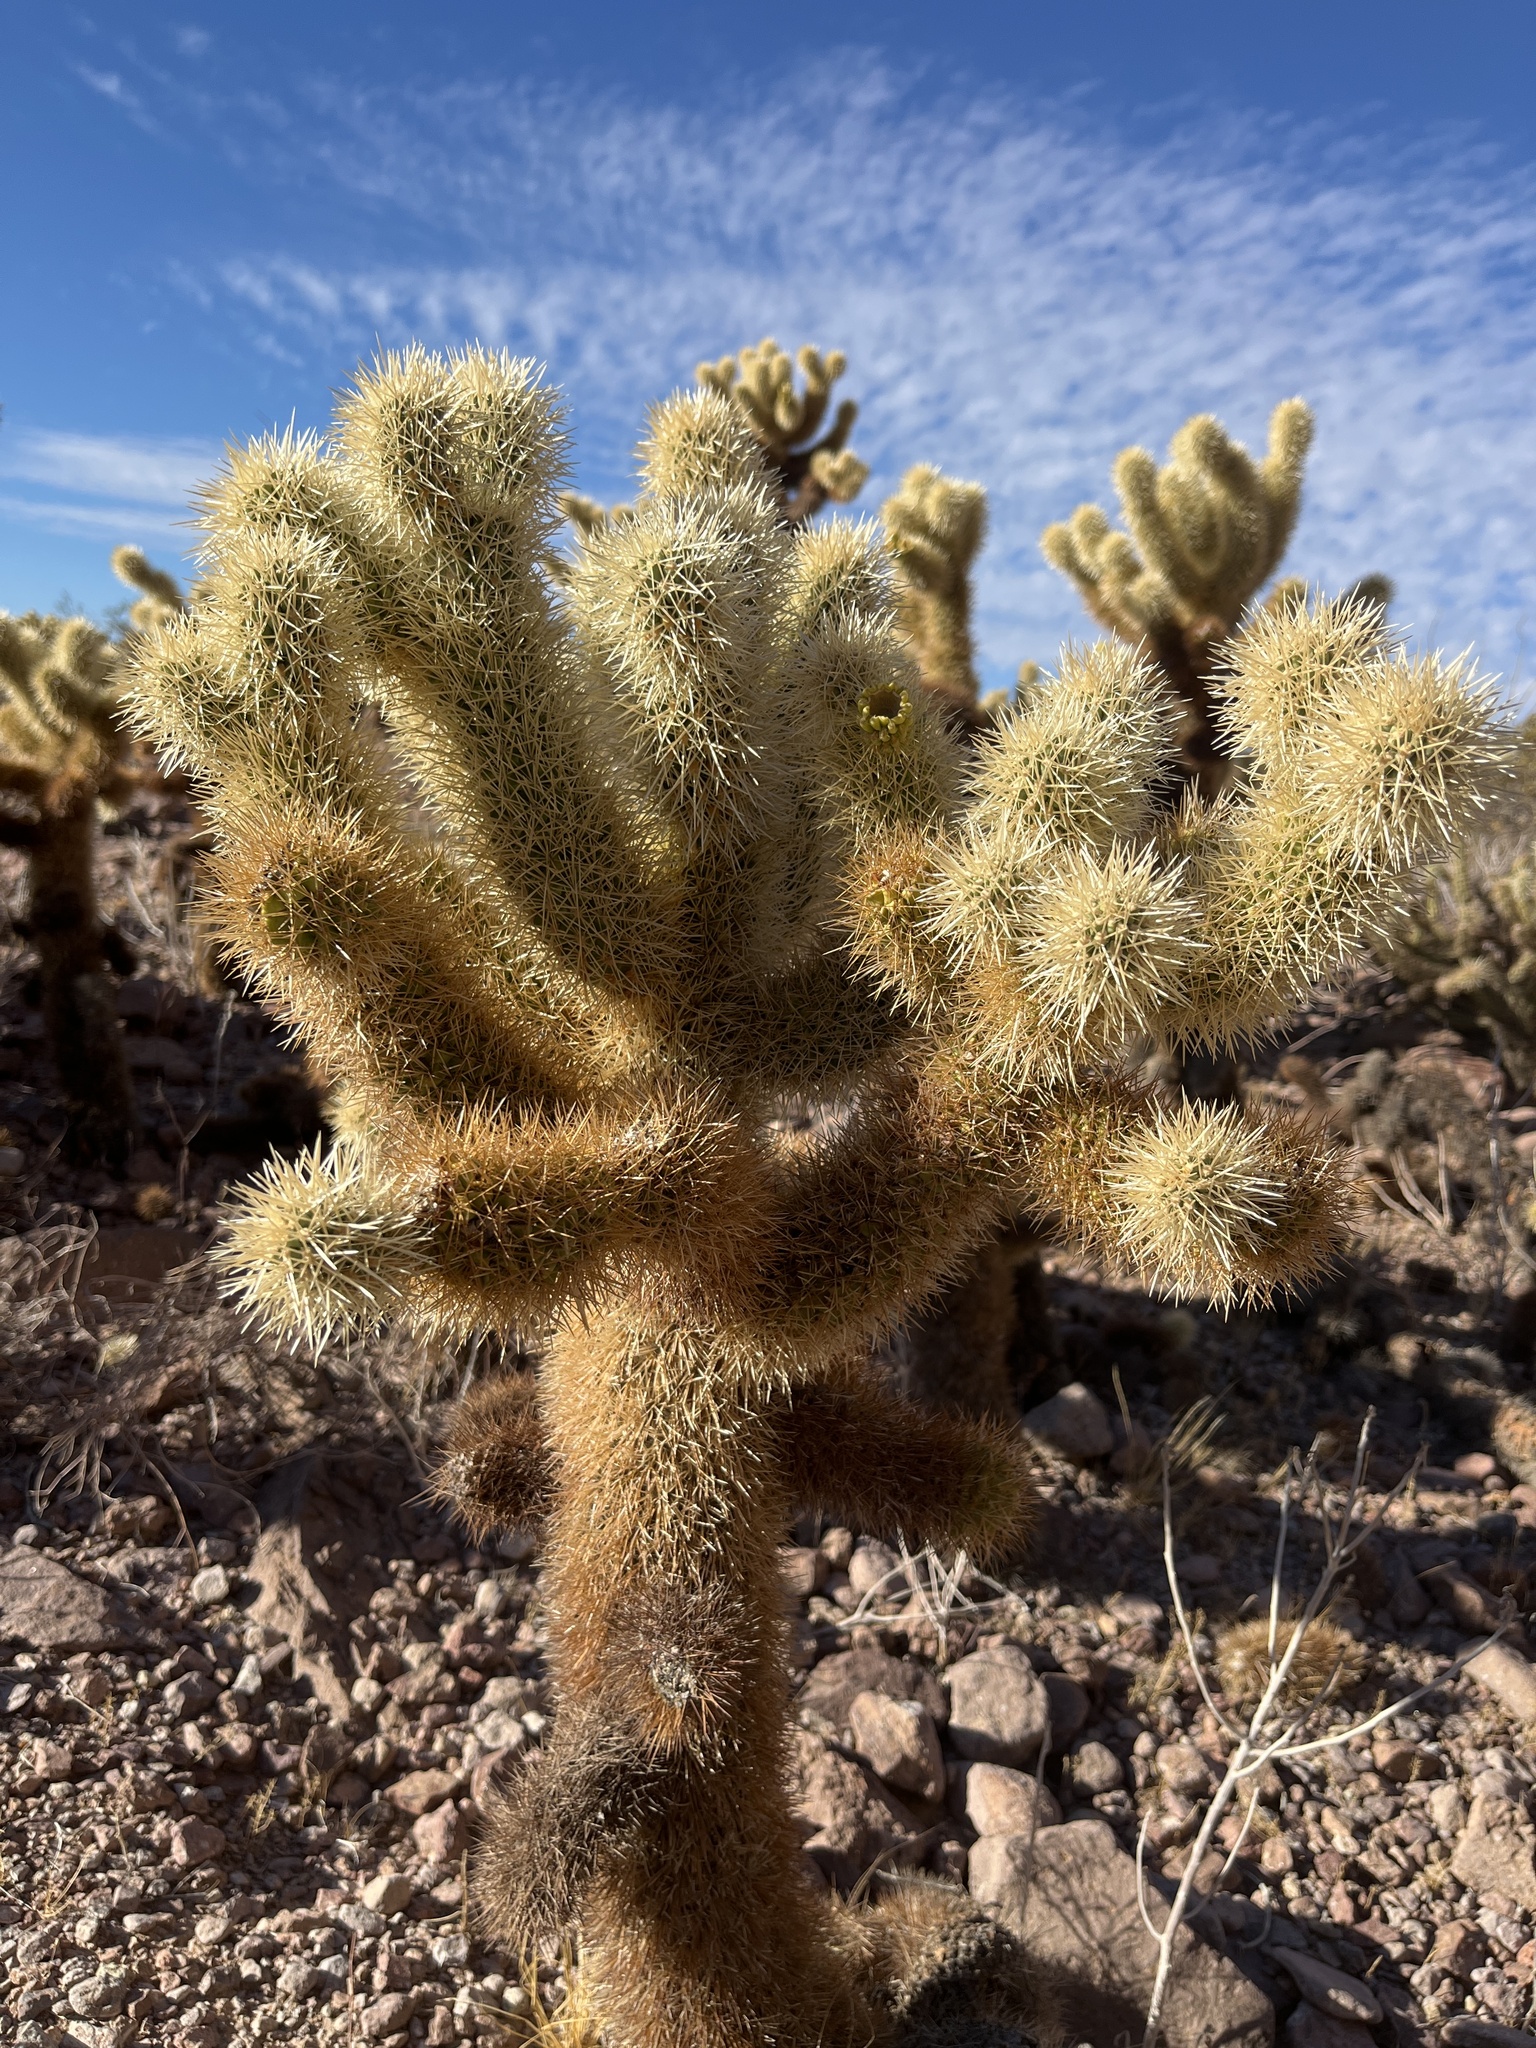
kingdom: Plantae
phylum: Tracheophyta
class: Magnoliopsida
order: Caryophyllales
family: Cactaceae
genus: Cylindropuntia
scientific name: Cylindropuntia fosbergii
